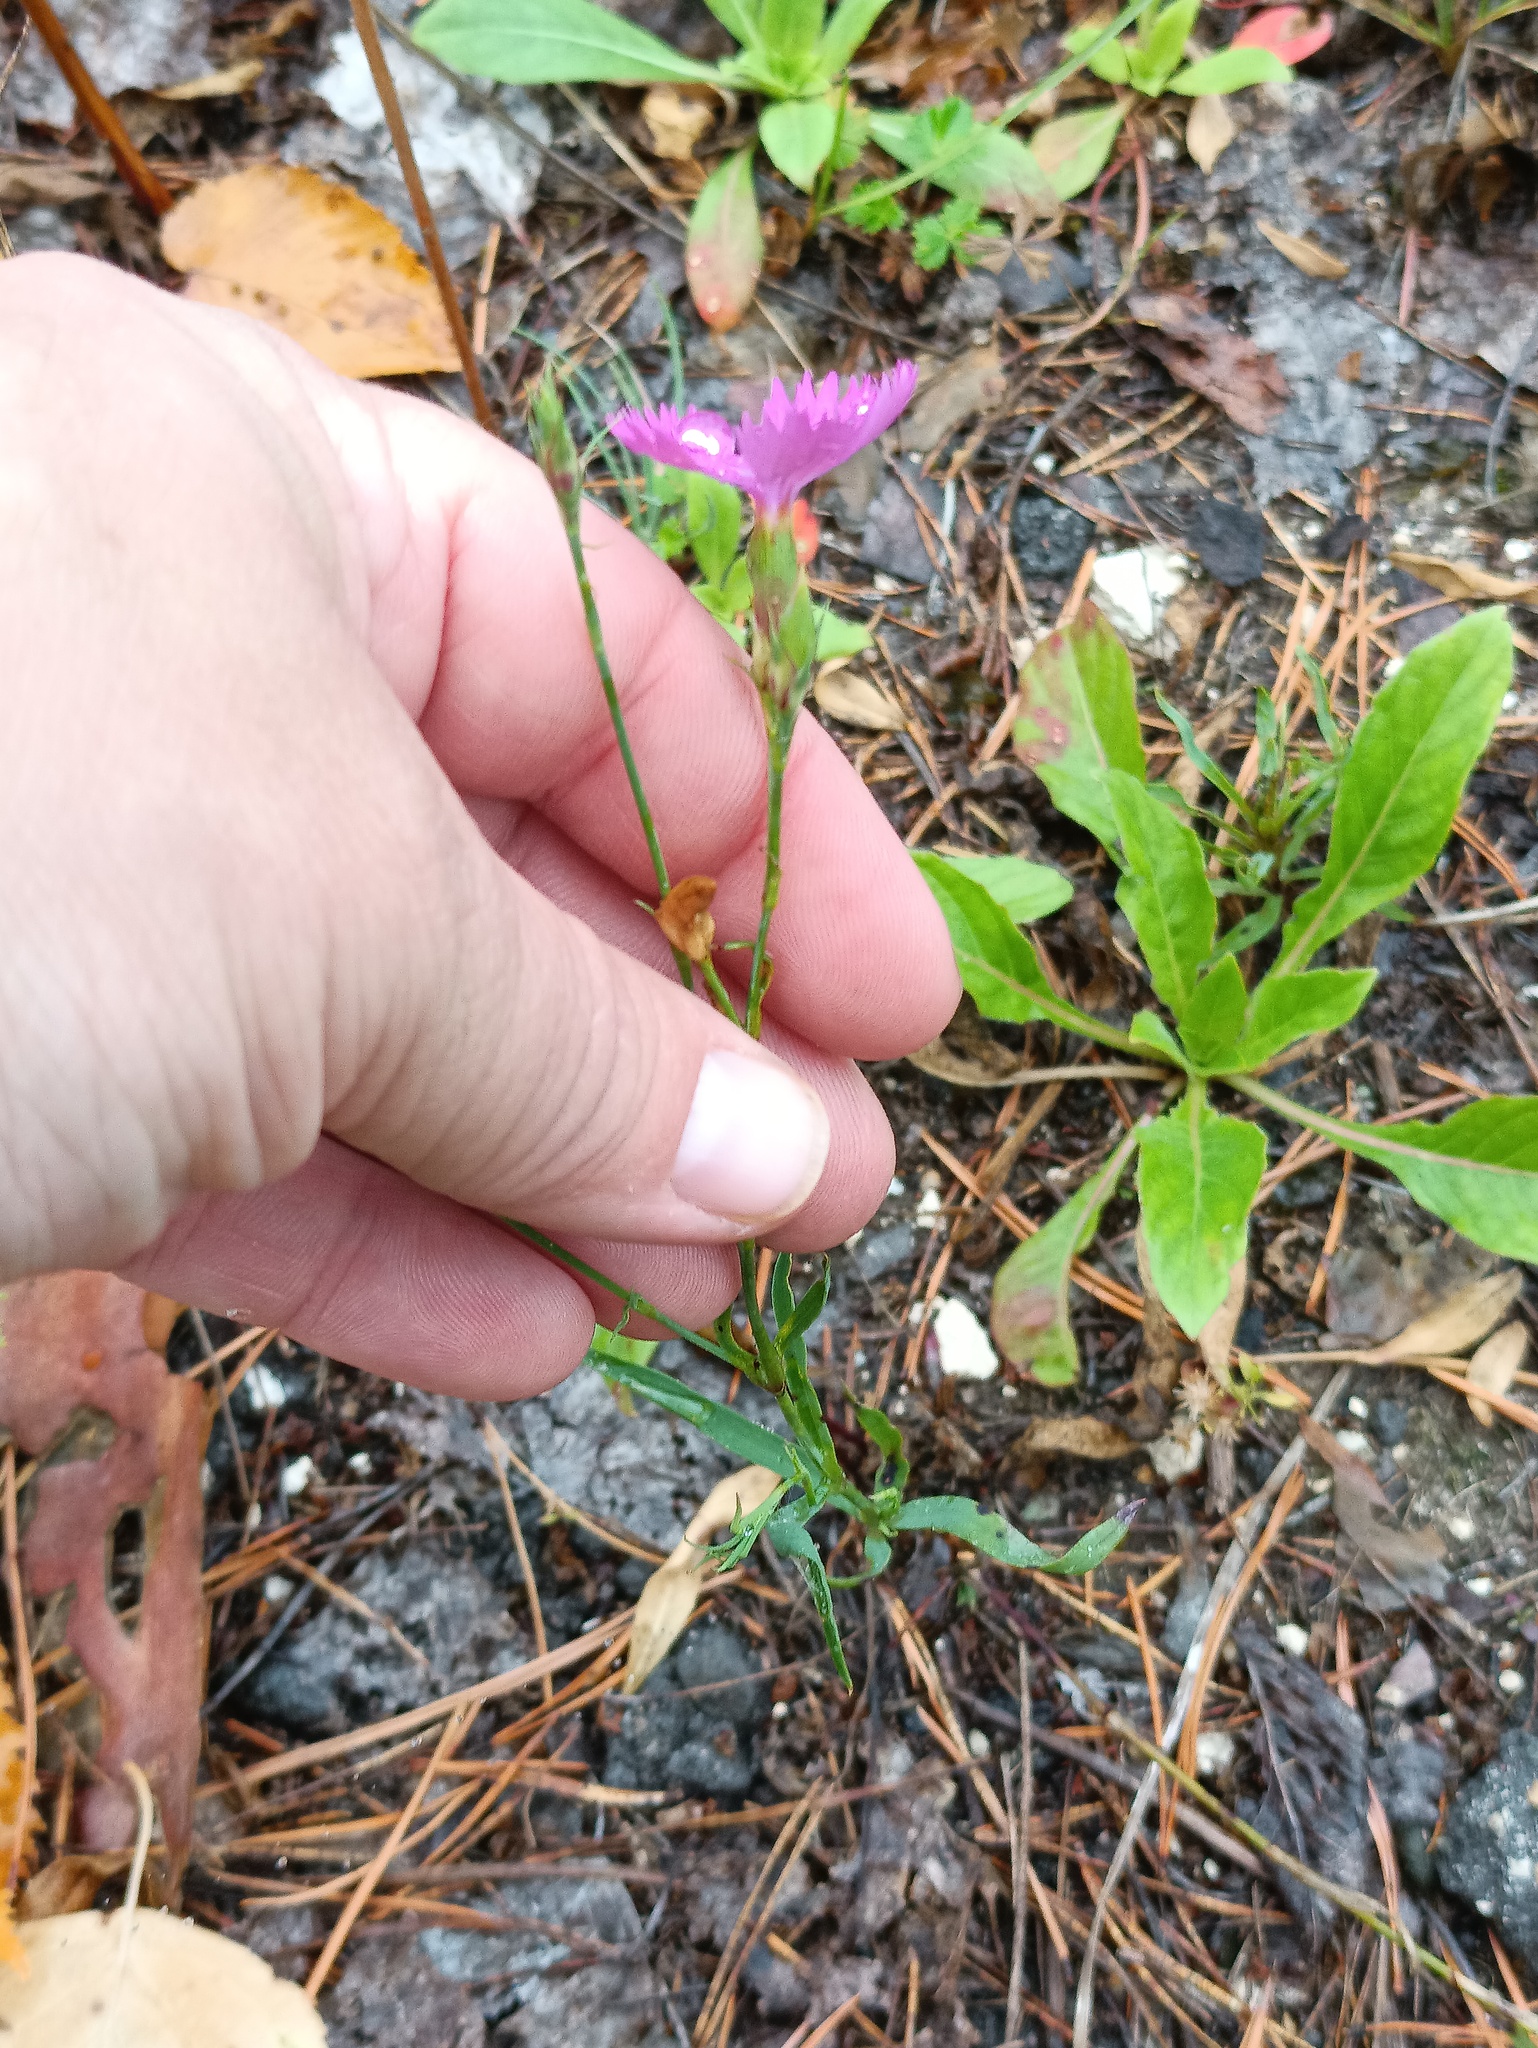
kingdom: Plantae
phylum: Tracheophyta
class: Magnoliopsida
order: Caryophyllales
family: Caryophyllaceae
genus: Dianthus
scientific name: Dianthus chinensis
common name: Rainbow pink
